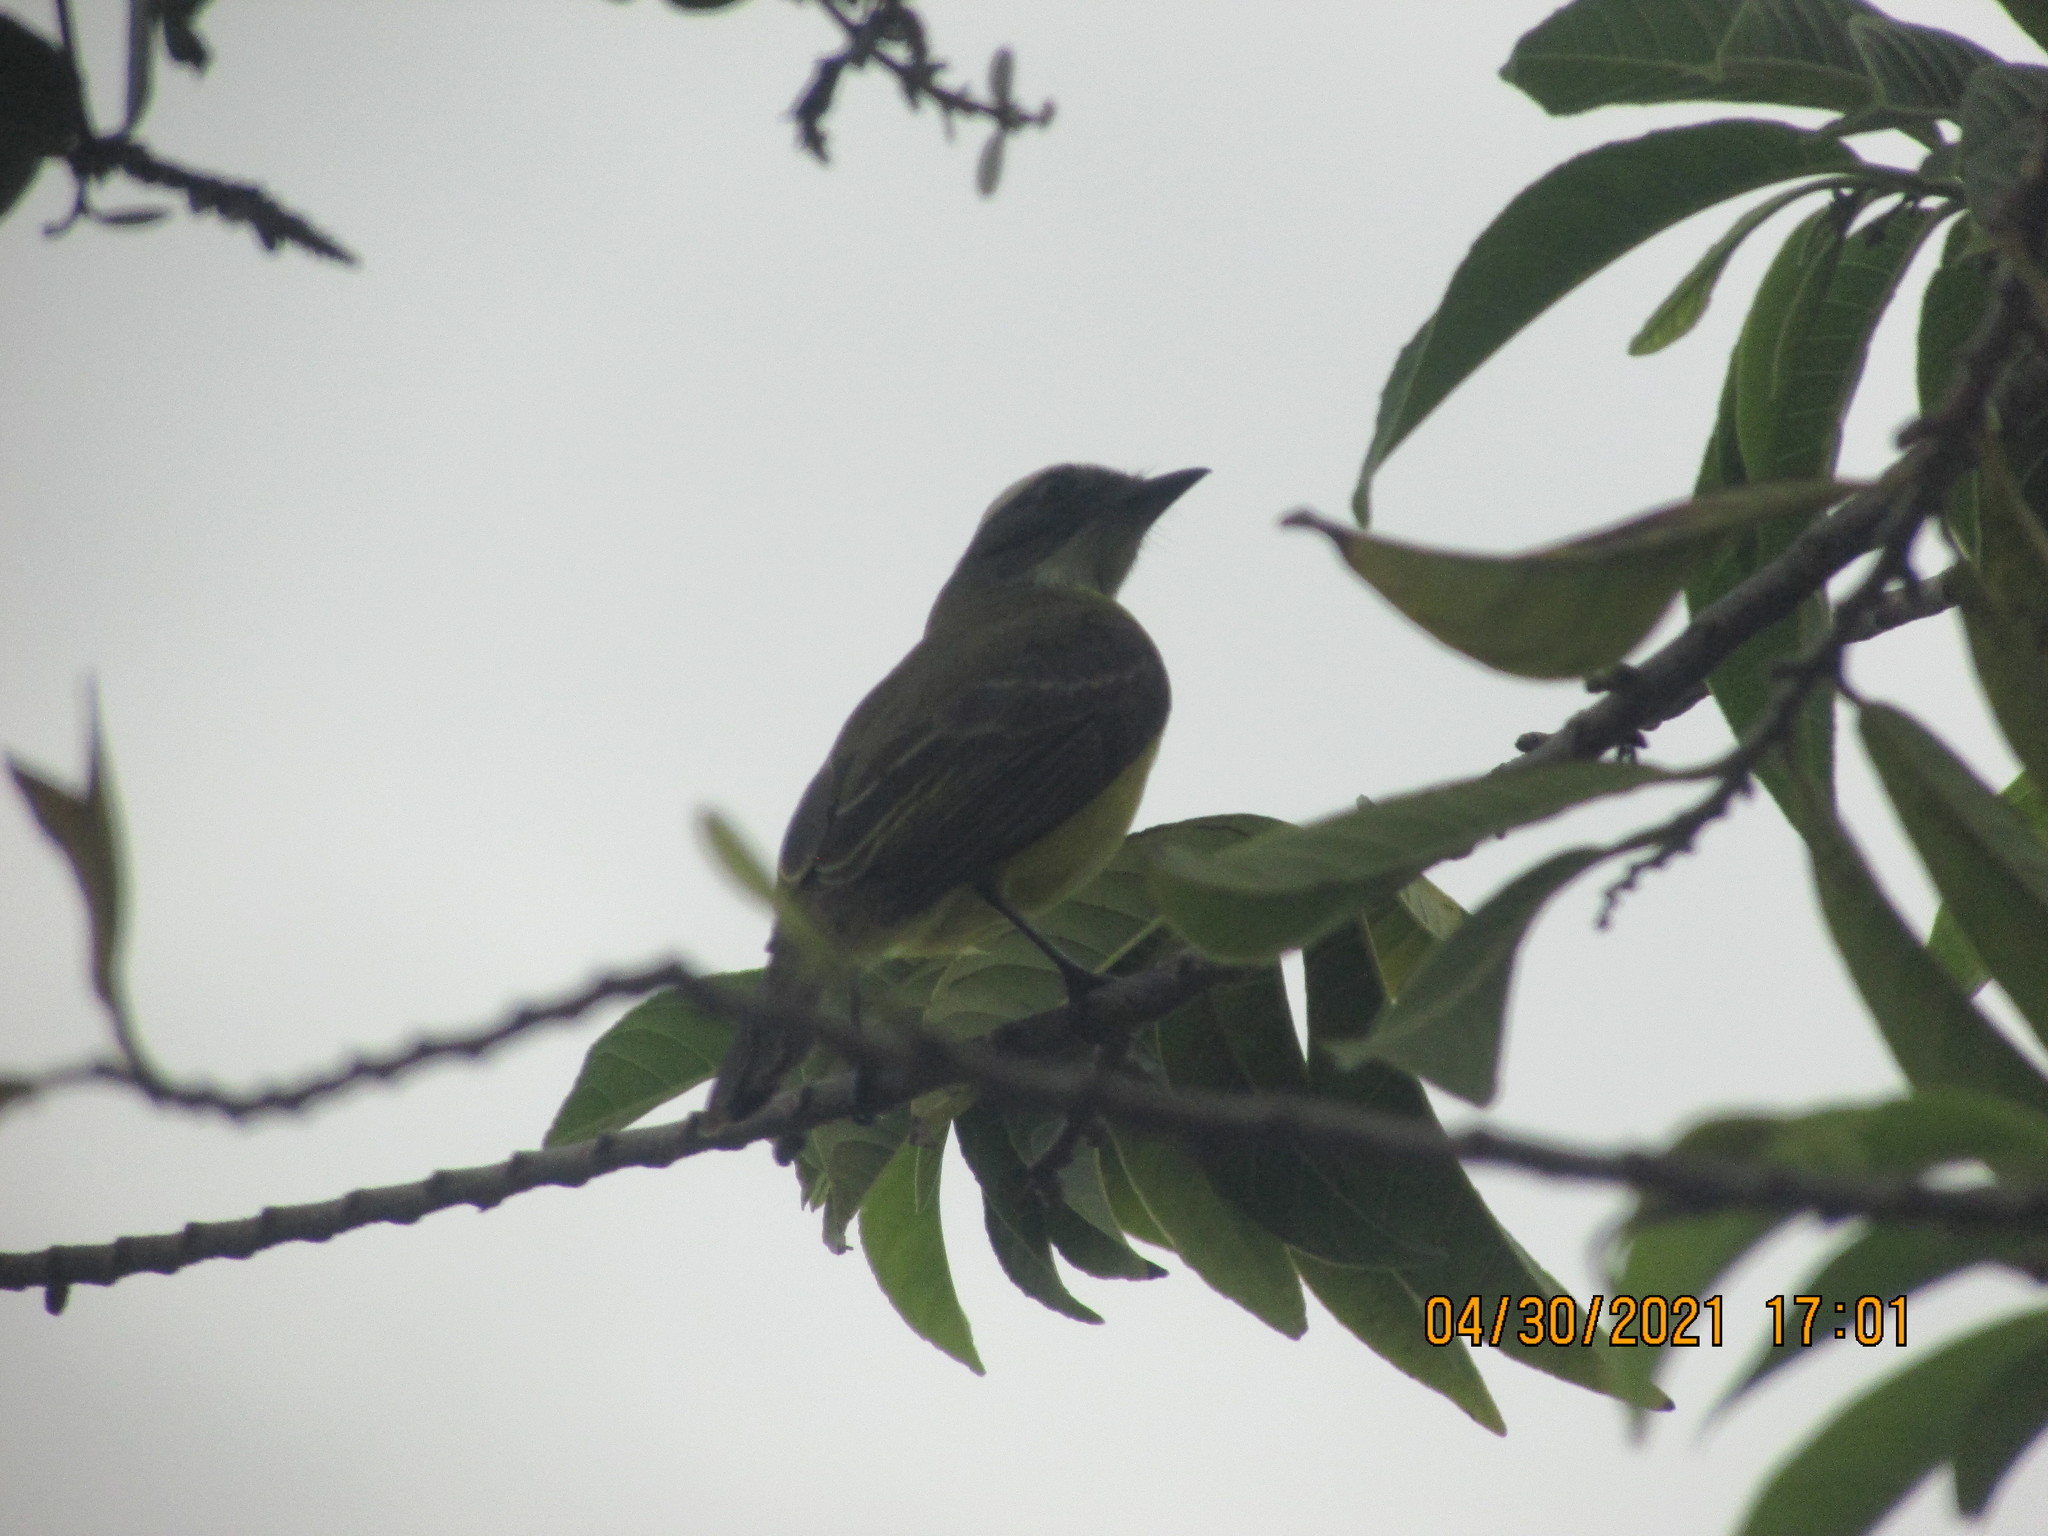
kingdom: Animalia
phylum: Chordata
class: Aves
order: Passeriformes
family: Tyrannidae
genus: Myiozetetes
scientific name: Myiozetetes similis
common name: Social flycatcher
